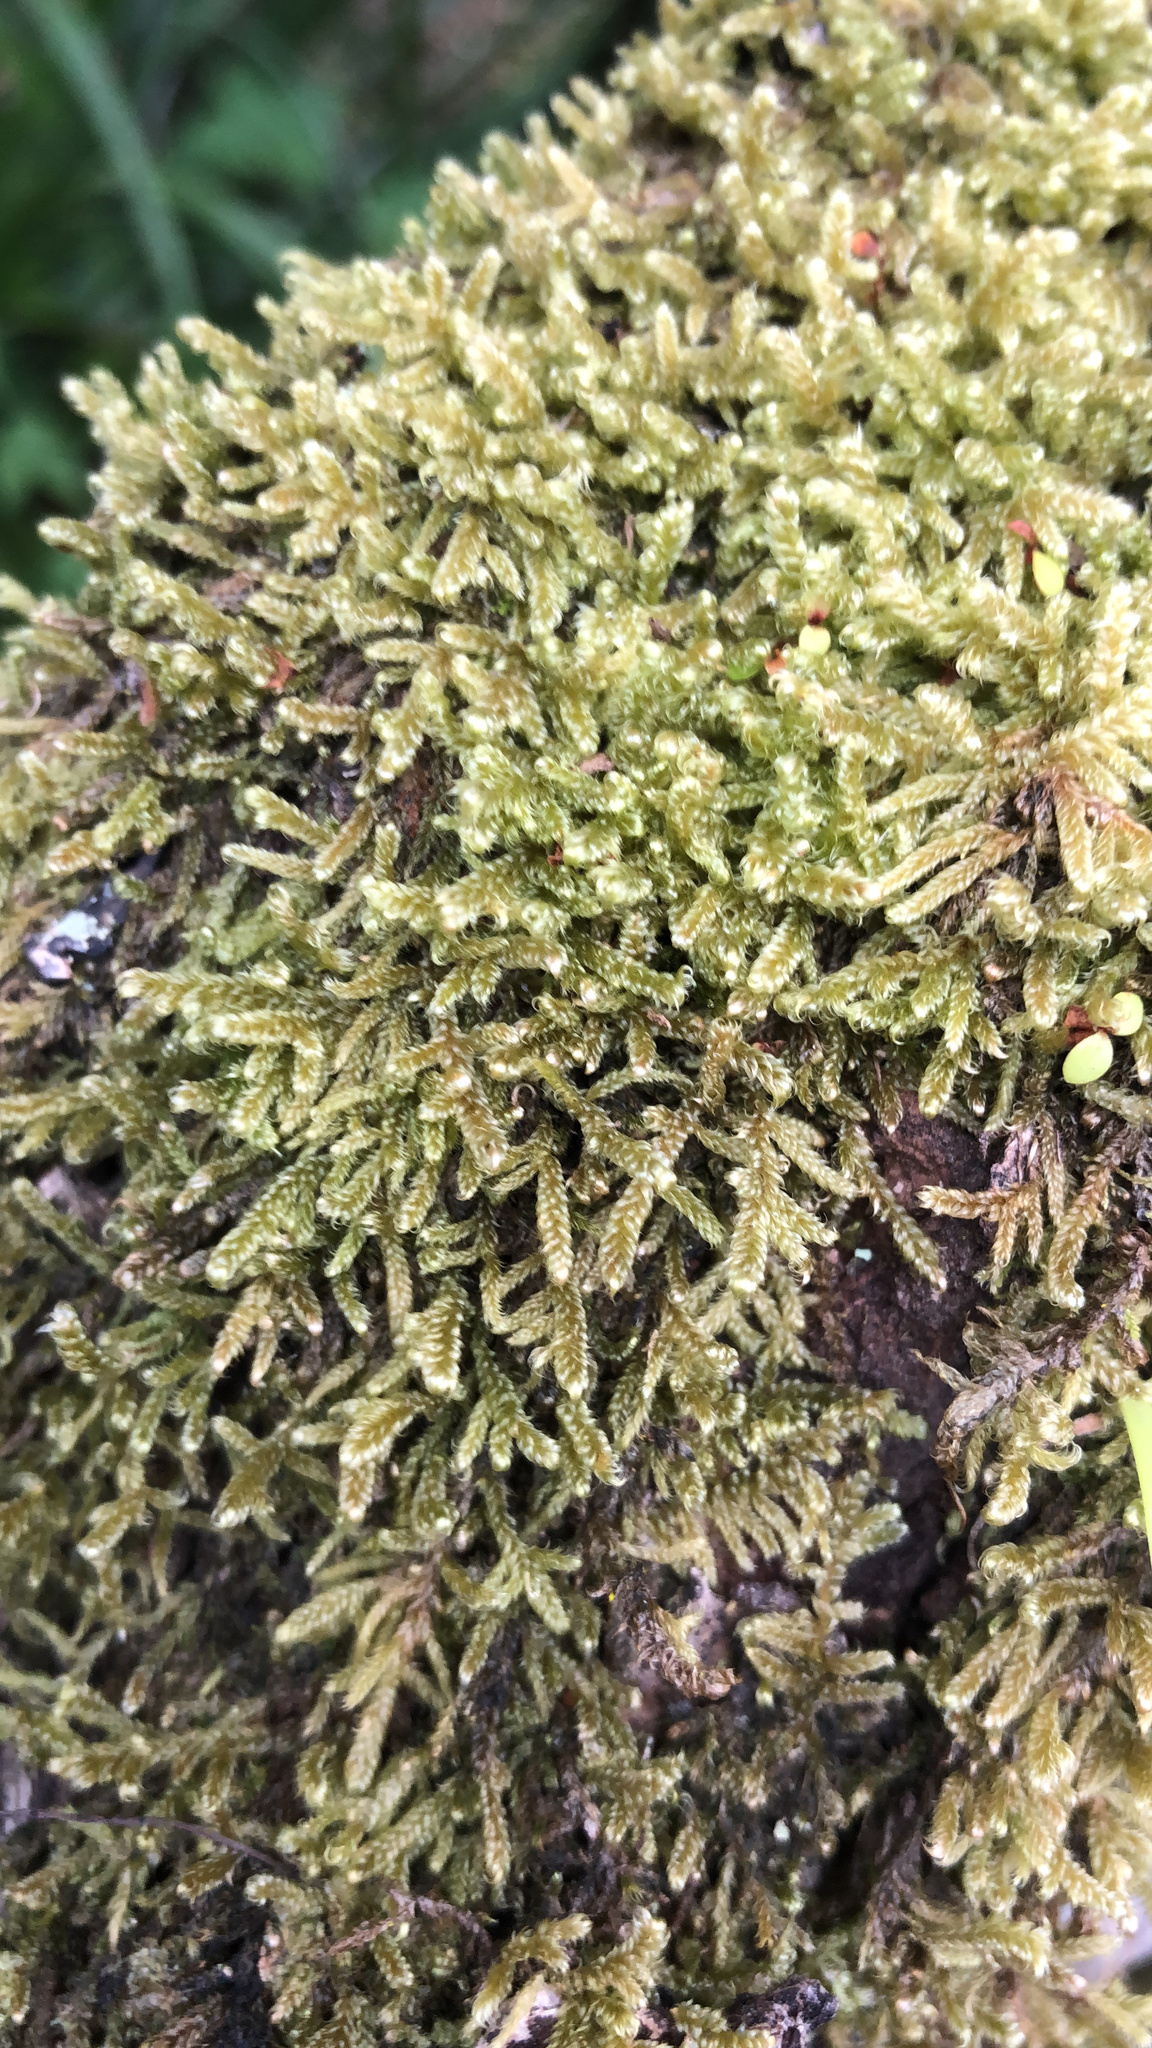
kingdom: Plantae
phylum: Bryophyta
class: Bryopsida
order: Hypnales
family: Hypnaceae
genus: Hypnum
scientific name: Hypnum cupressiforme
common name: Cypress-leaved plait-moss
